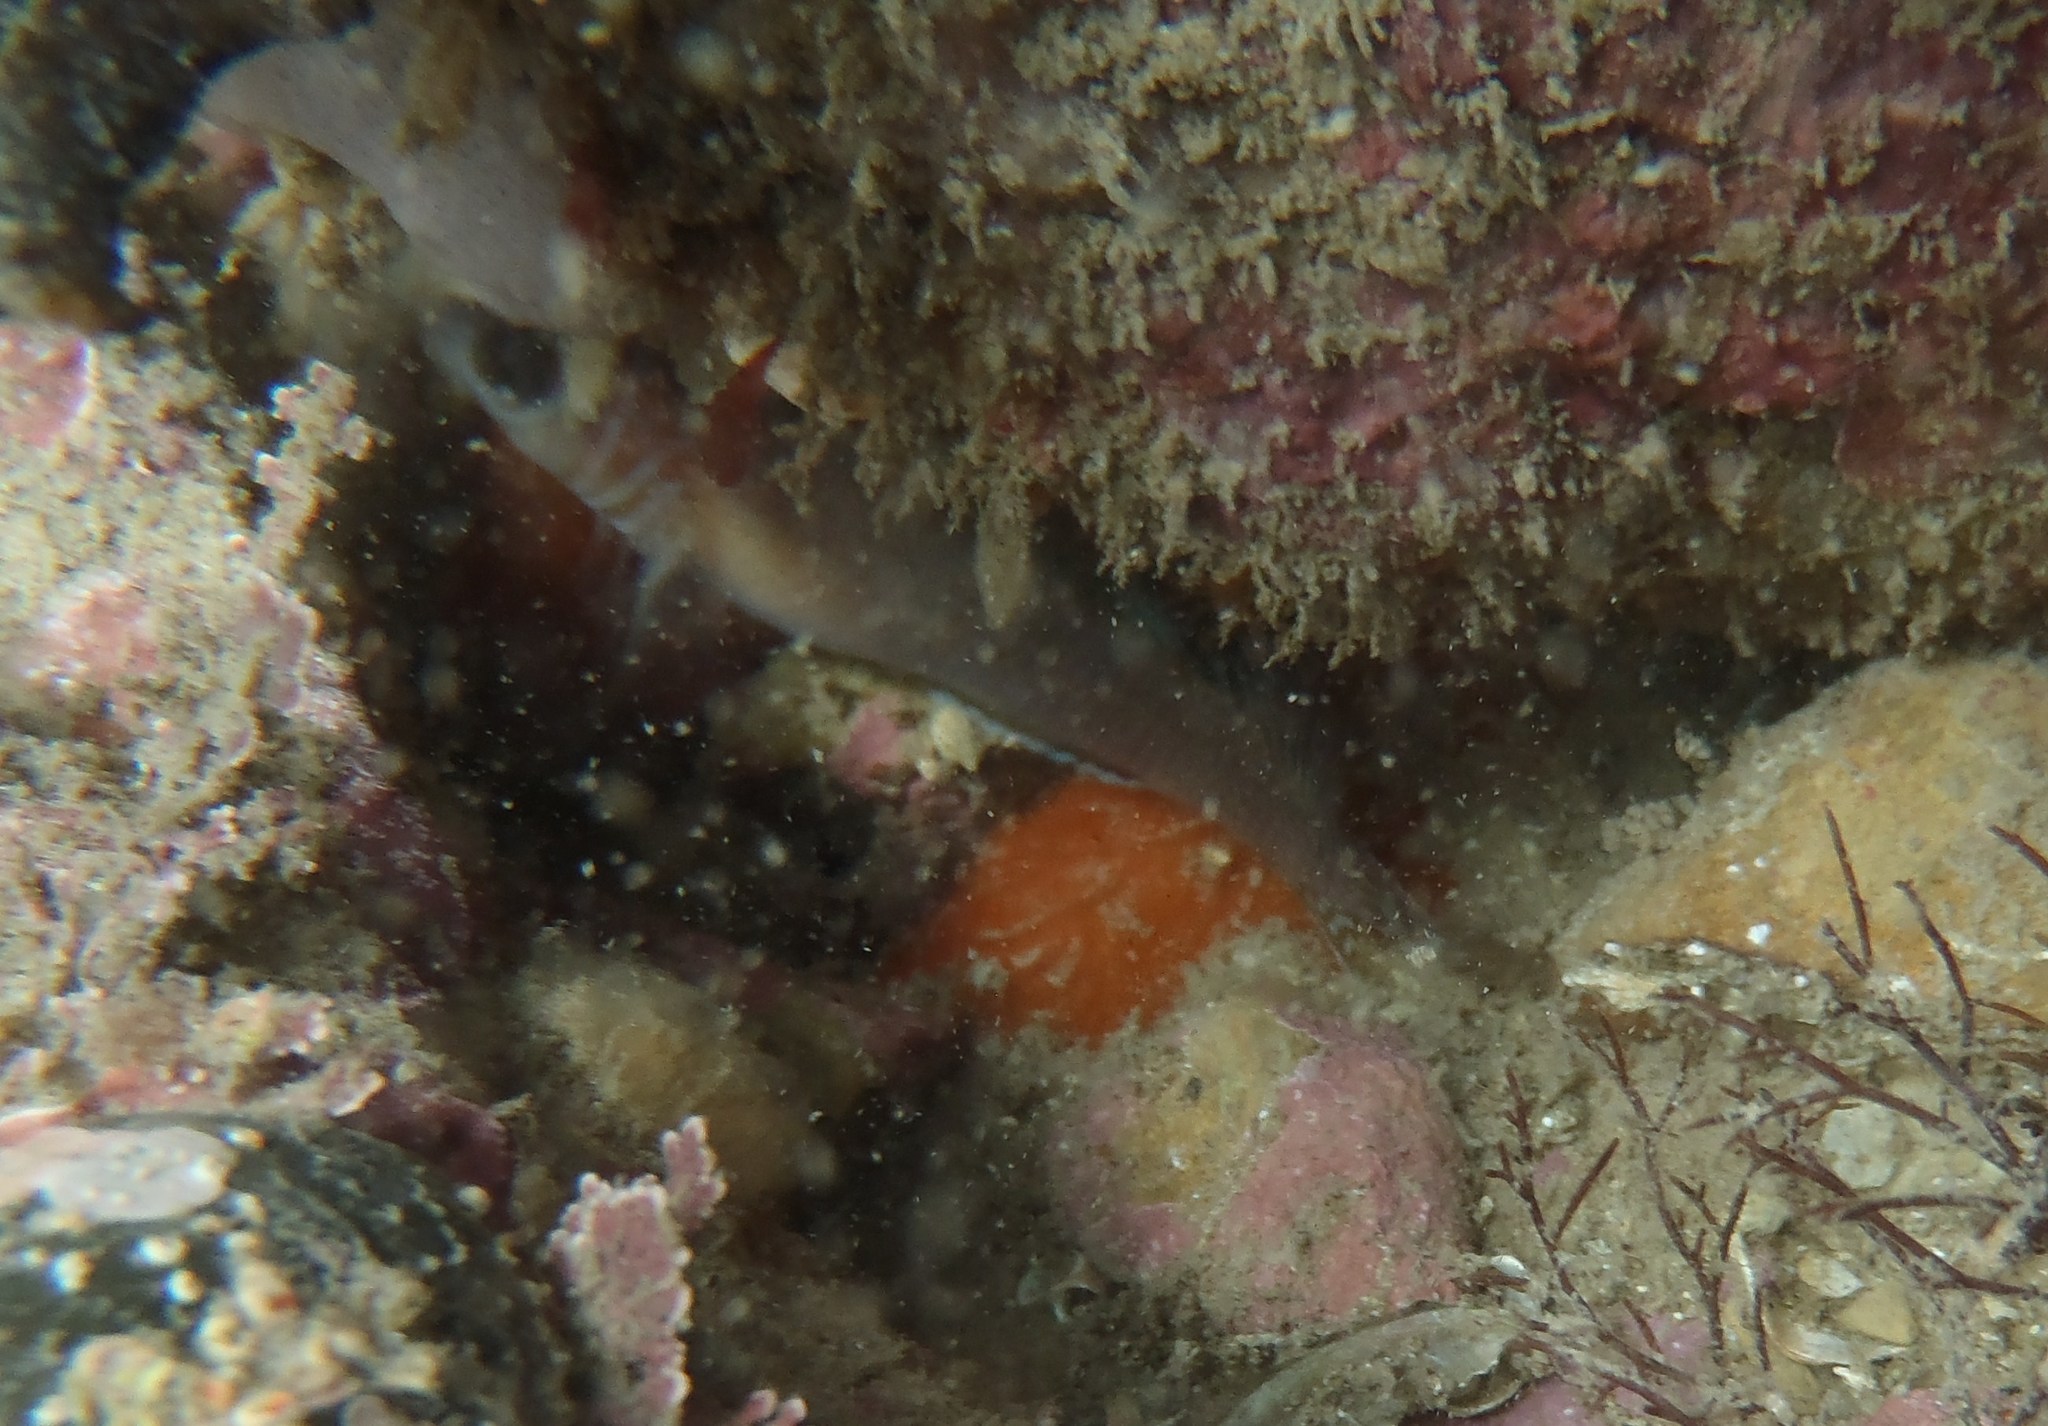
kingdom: Animalia
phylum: Chordata
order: Perciformes
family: Tripterygiidae
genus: Ruanoho
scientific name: Ruanoho whero
